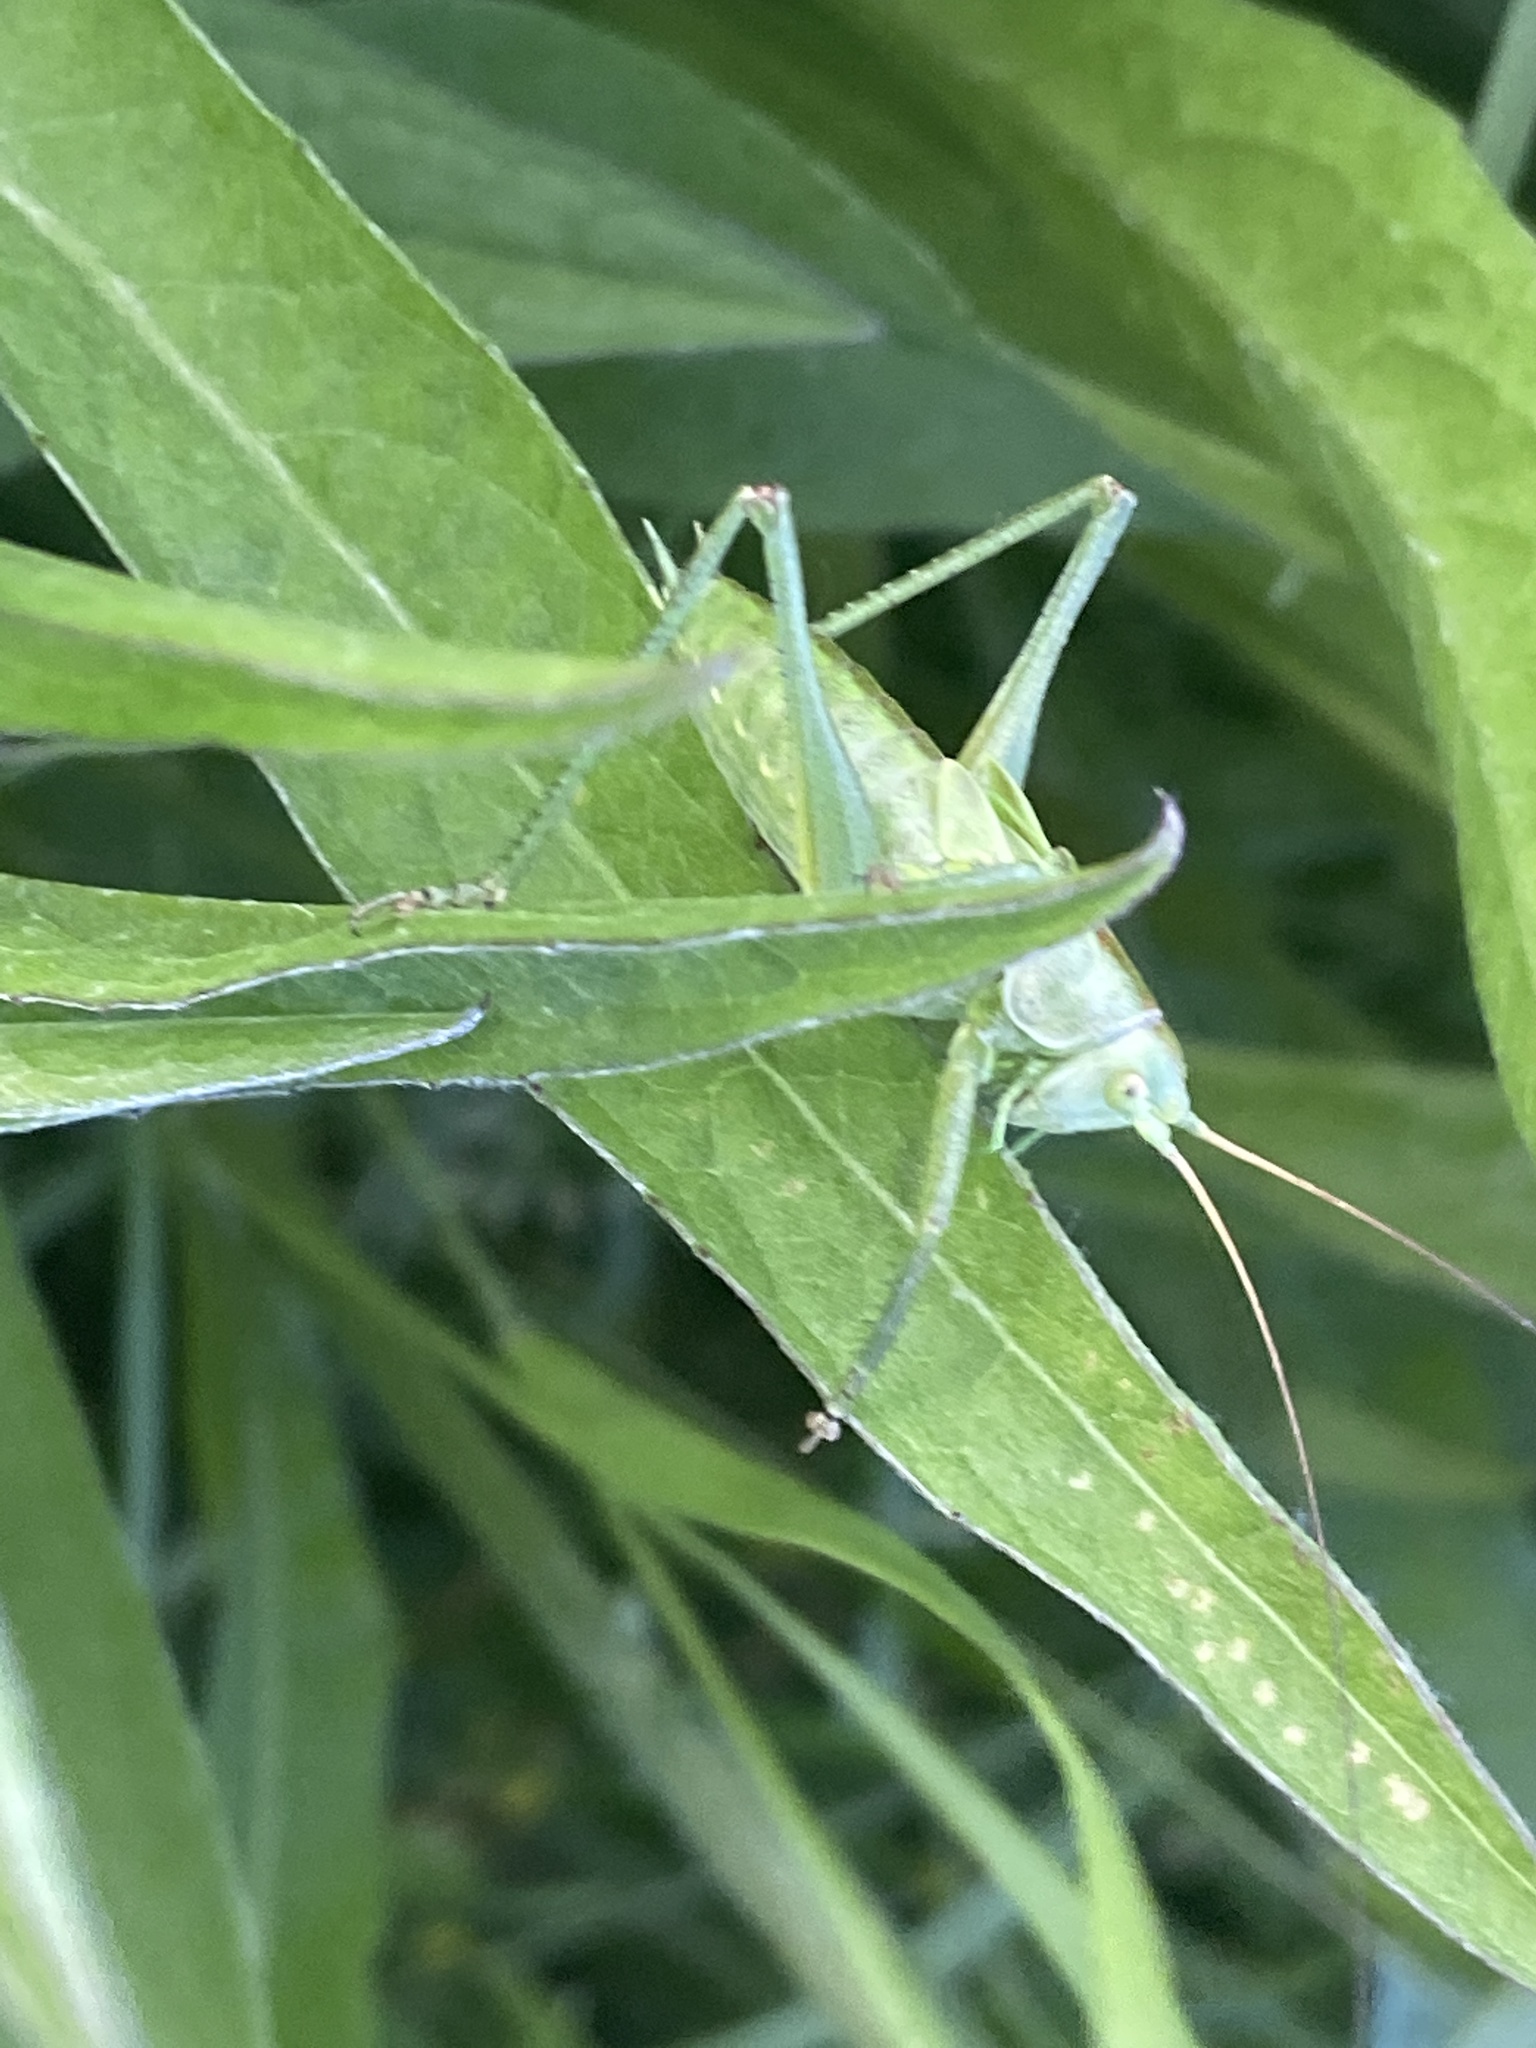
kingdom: Animalia
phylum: Arthropoda
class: Insecta
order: Orthoptera
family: Tettigoniidae
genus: Tettigonia
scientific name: Tettigonia viridissima
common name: Great green bush-cricket
